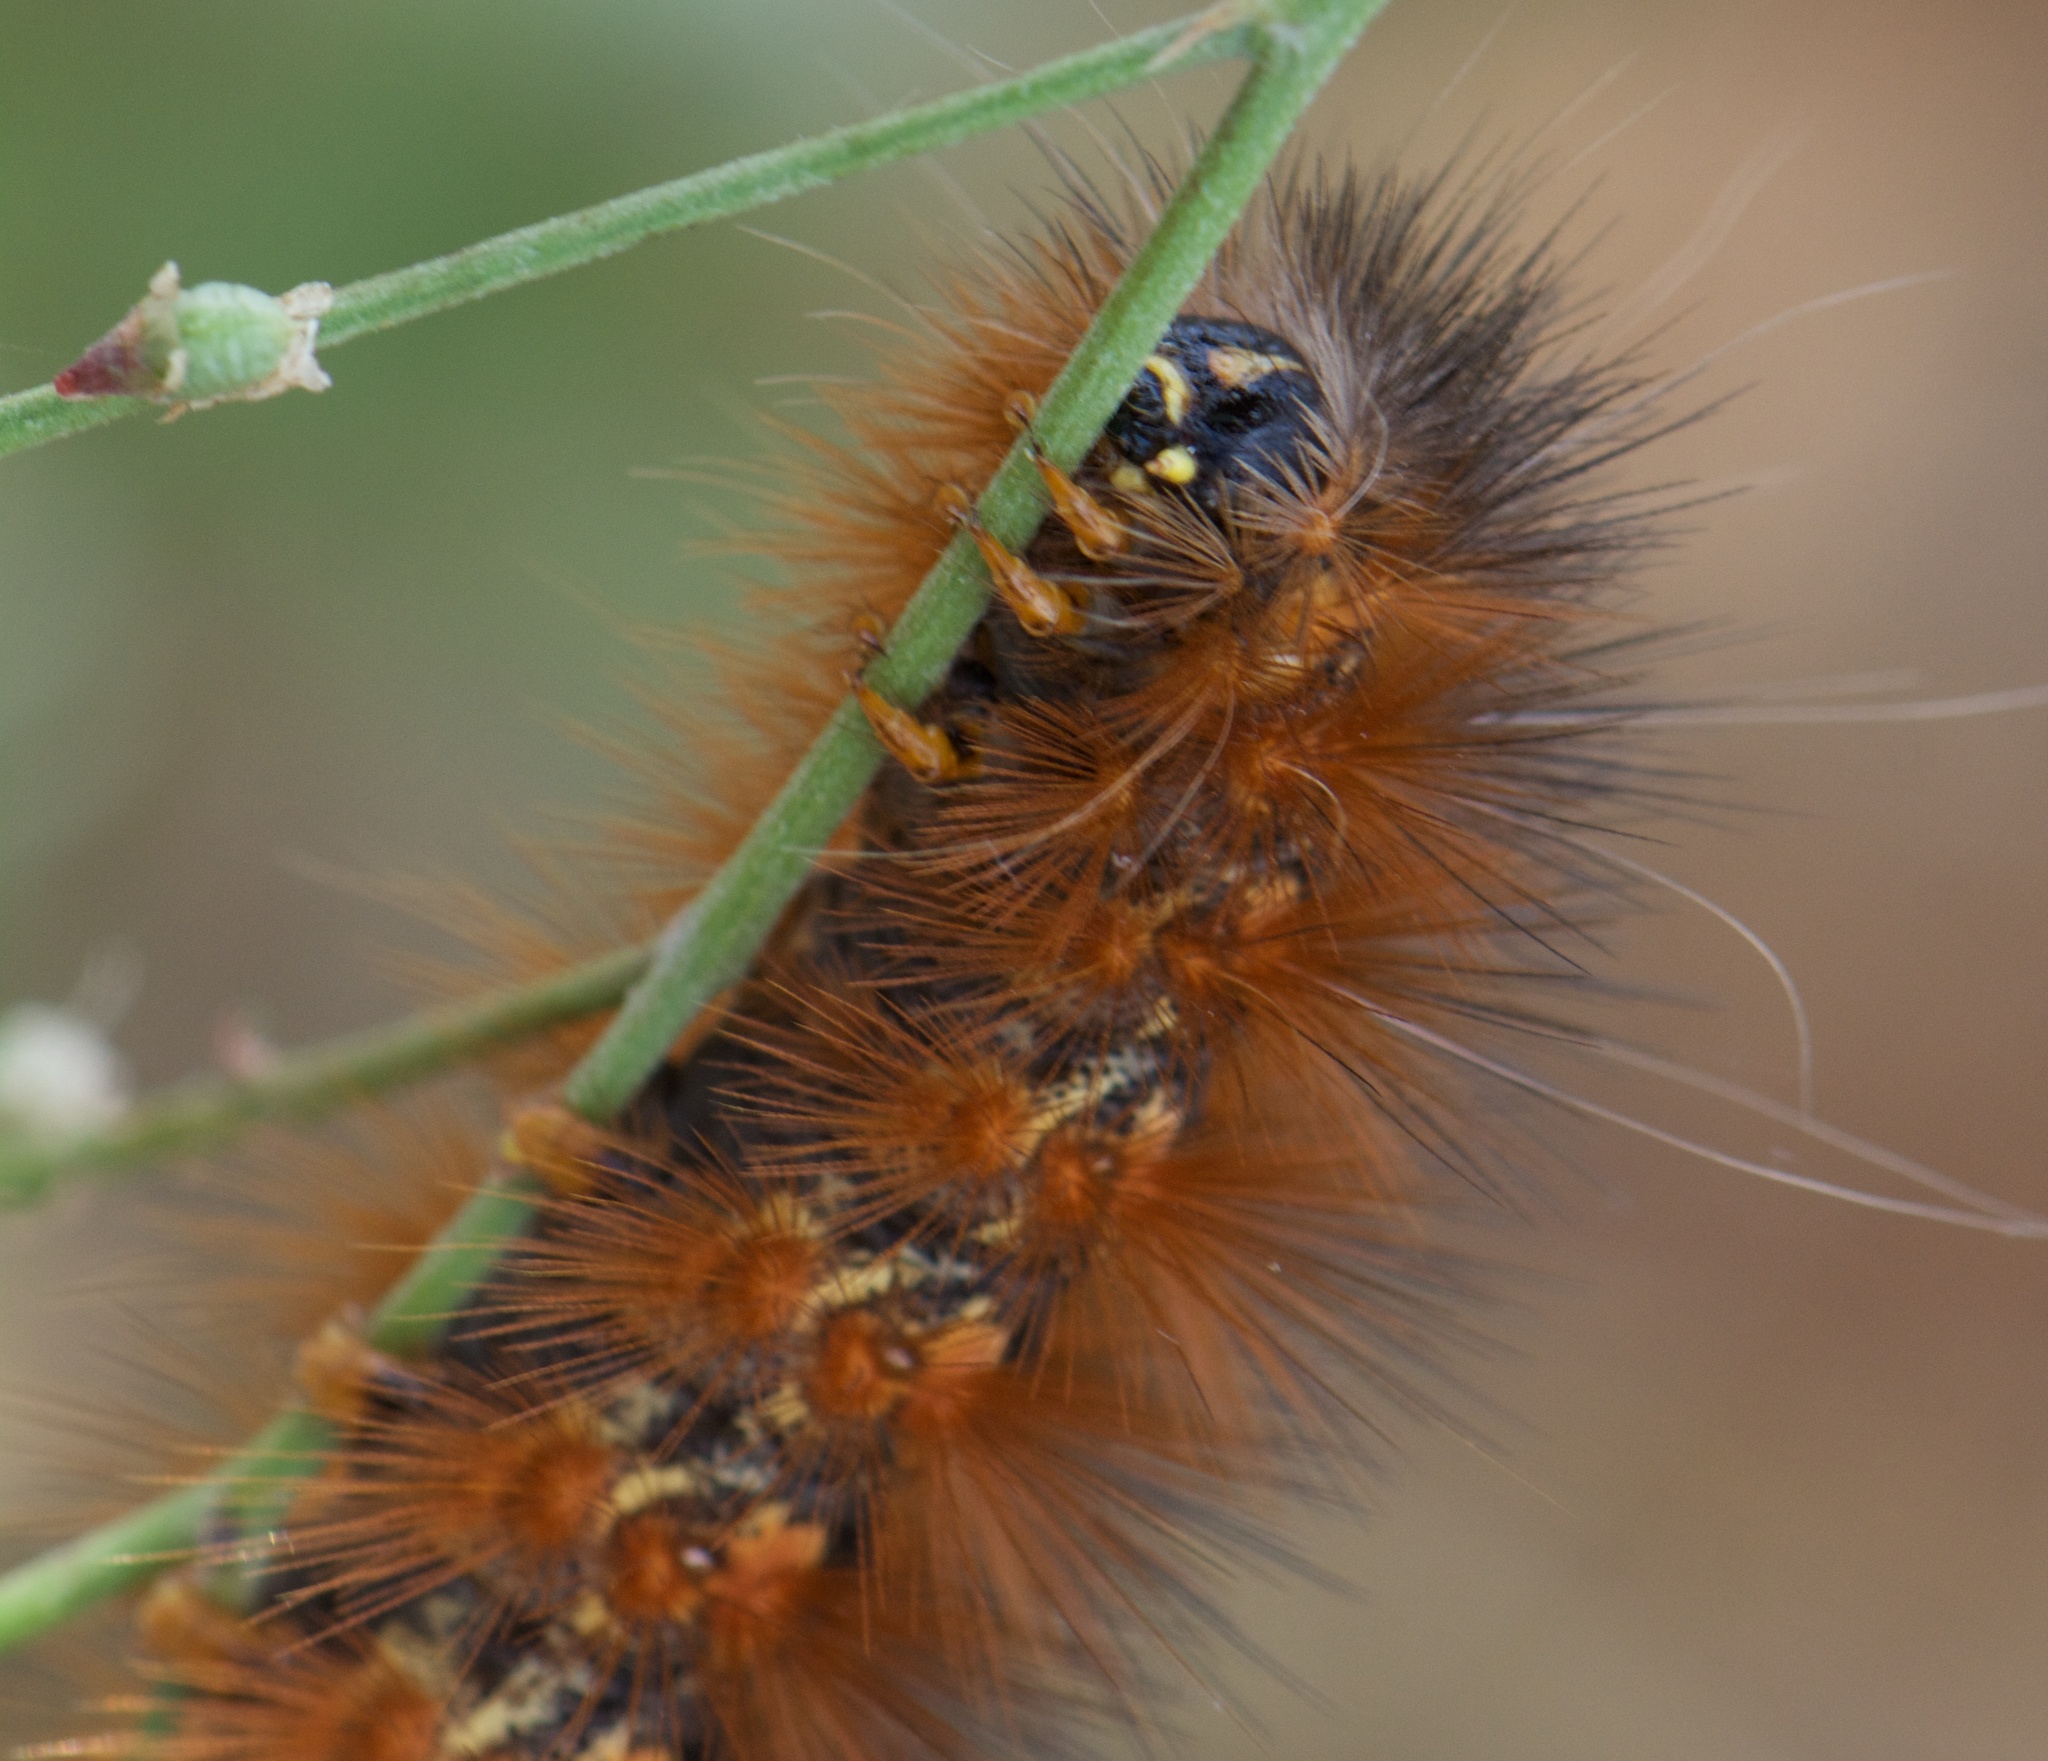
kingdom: Animalia
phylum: Arthropoda
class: Insecta
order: Lepidoptera
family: Erebidae
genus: Estigmene
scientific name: Estigmene acrea
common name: Salt marsh moth
